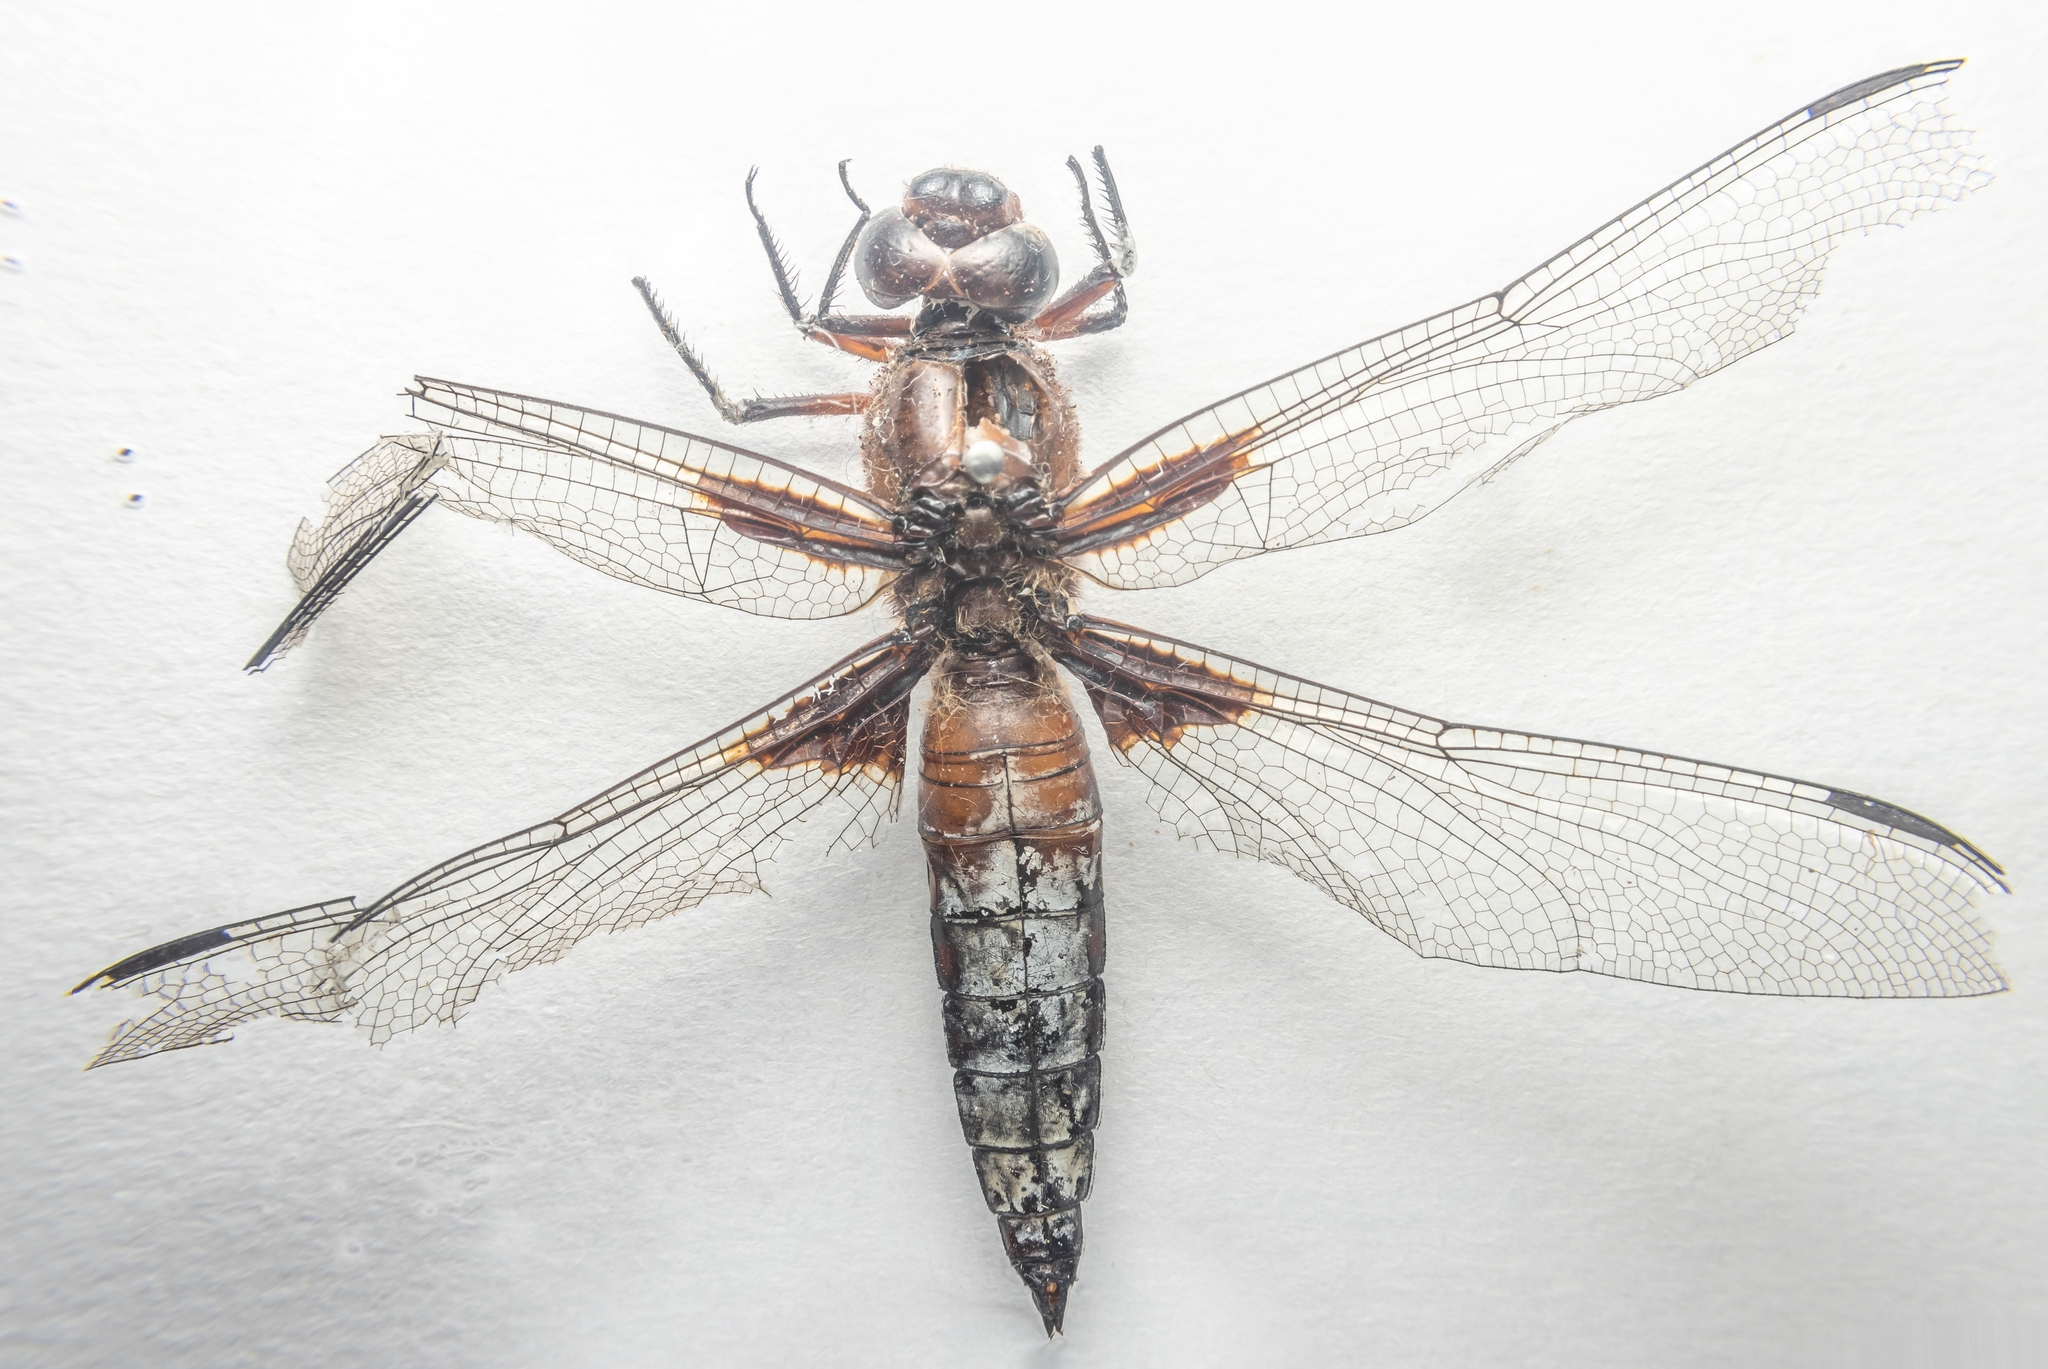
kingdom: Animalia
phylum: Arthropoda
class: Insecta
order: Odonata
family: Libellulidae
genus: Libellula
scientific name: Libellula depressa
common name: Broad-bodied chaser
